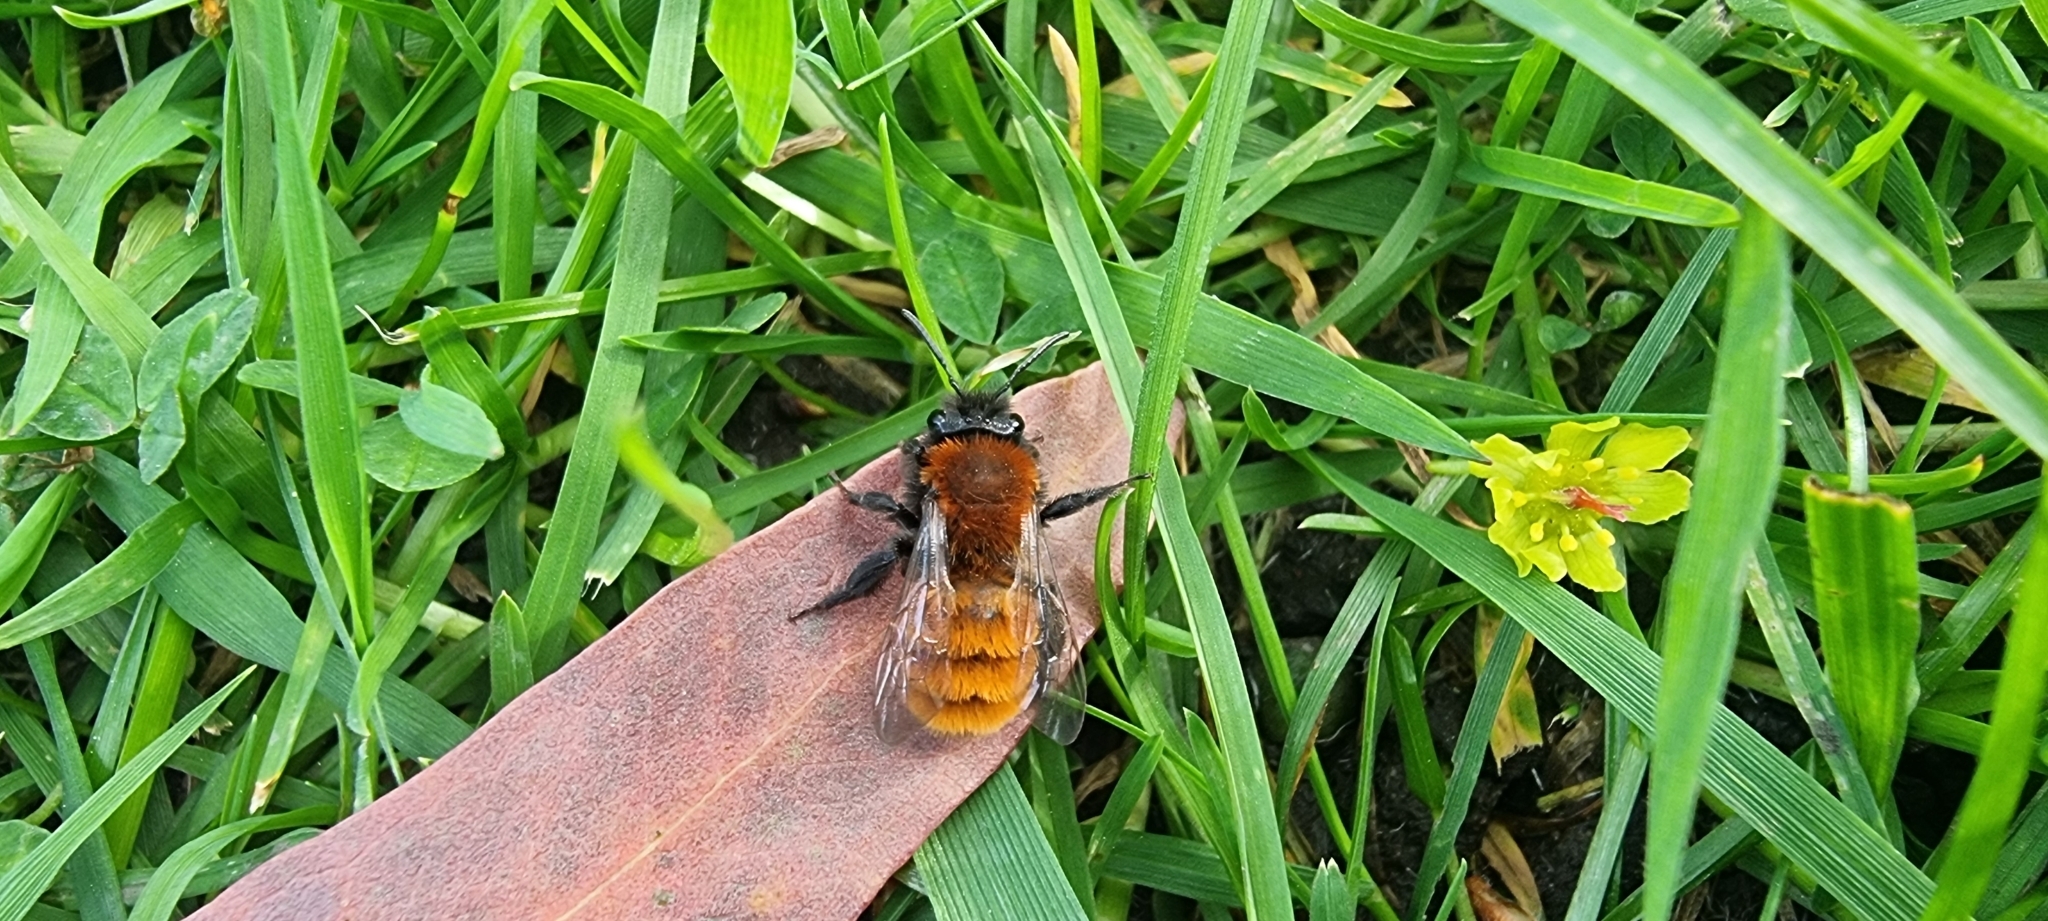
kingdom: Animalia
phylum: Arthropoda
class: Insecta
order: Hymenoptera
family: Andrenidae
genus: Andrena
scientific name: Andrena fulva
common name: Tawny mining bee
